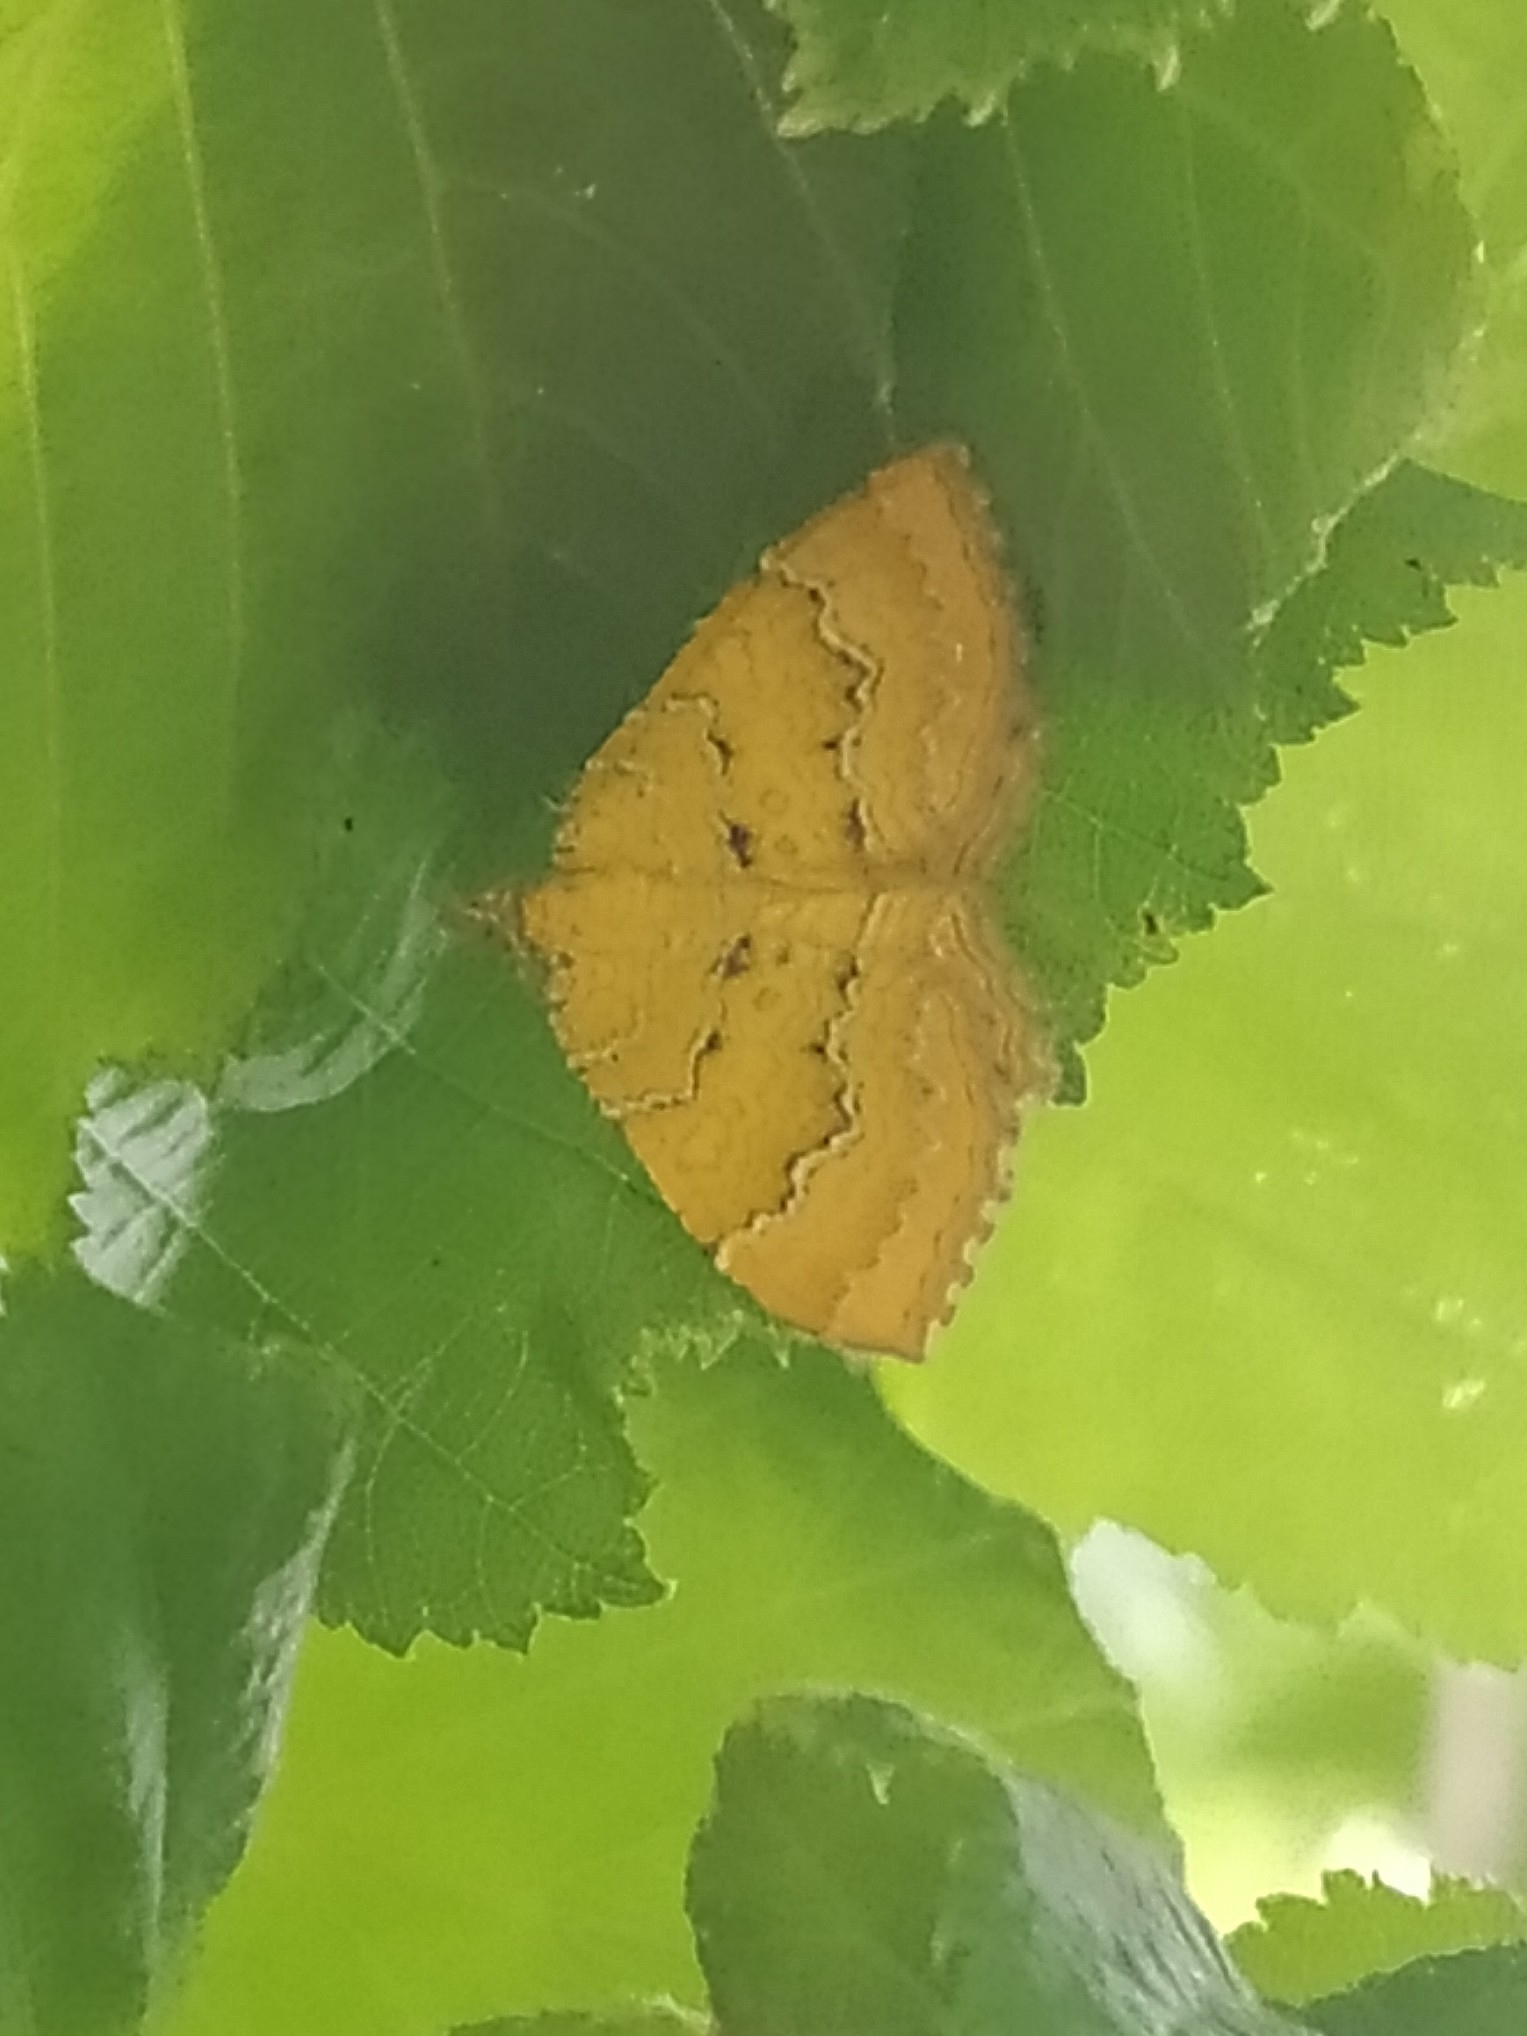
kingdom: Animalia
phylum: Arthropoda
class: Insecta
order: Lepidoptera
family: Geometridae
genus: Camptogramma
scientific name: Camptogramma bilineata
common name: Yellow shell
